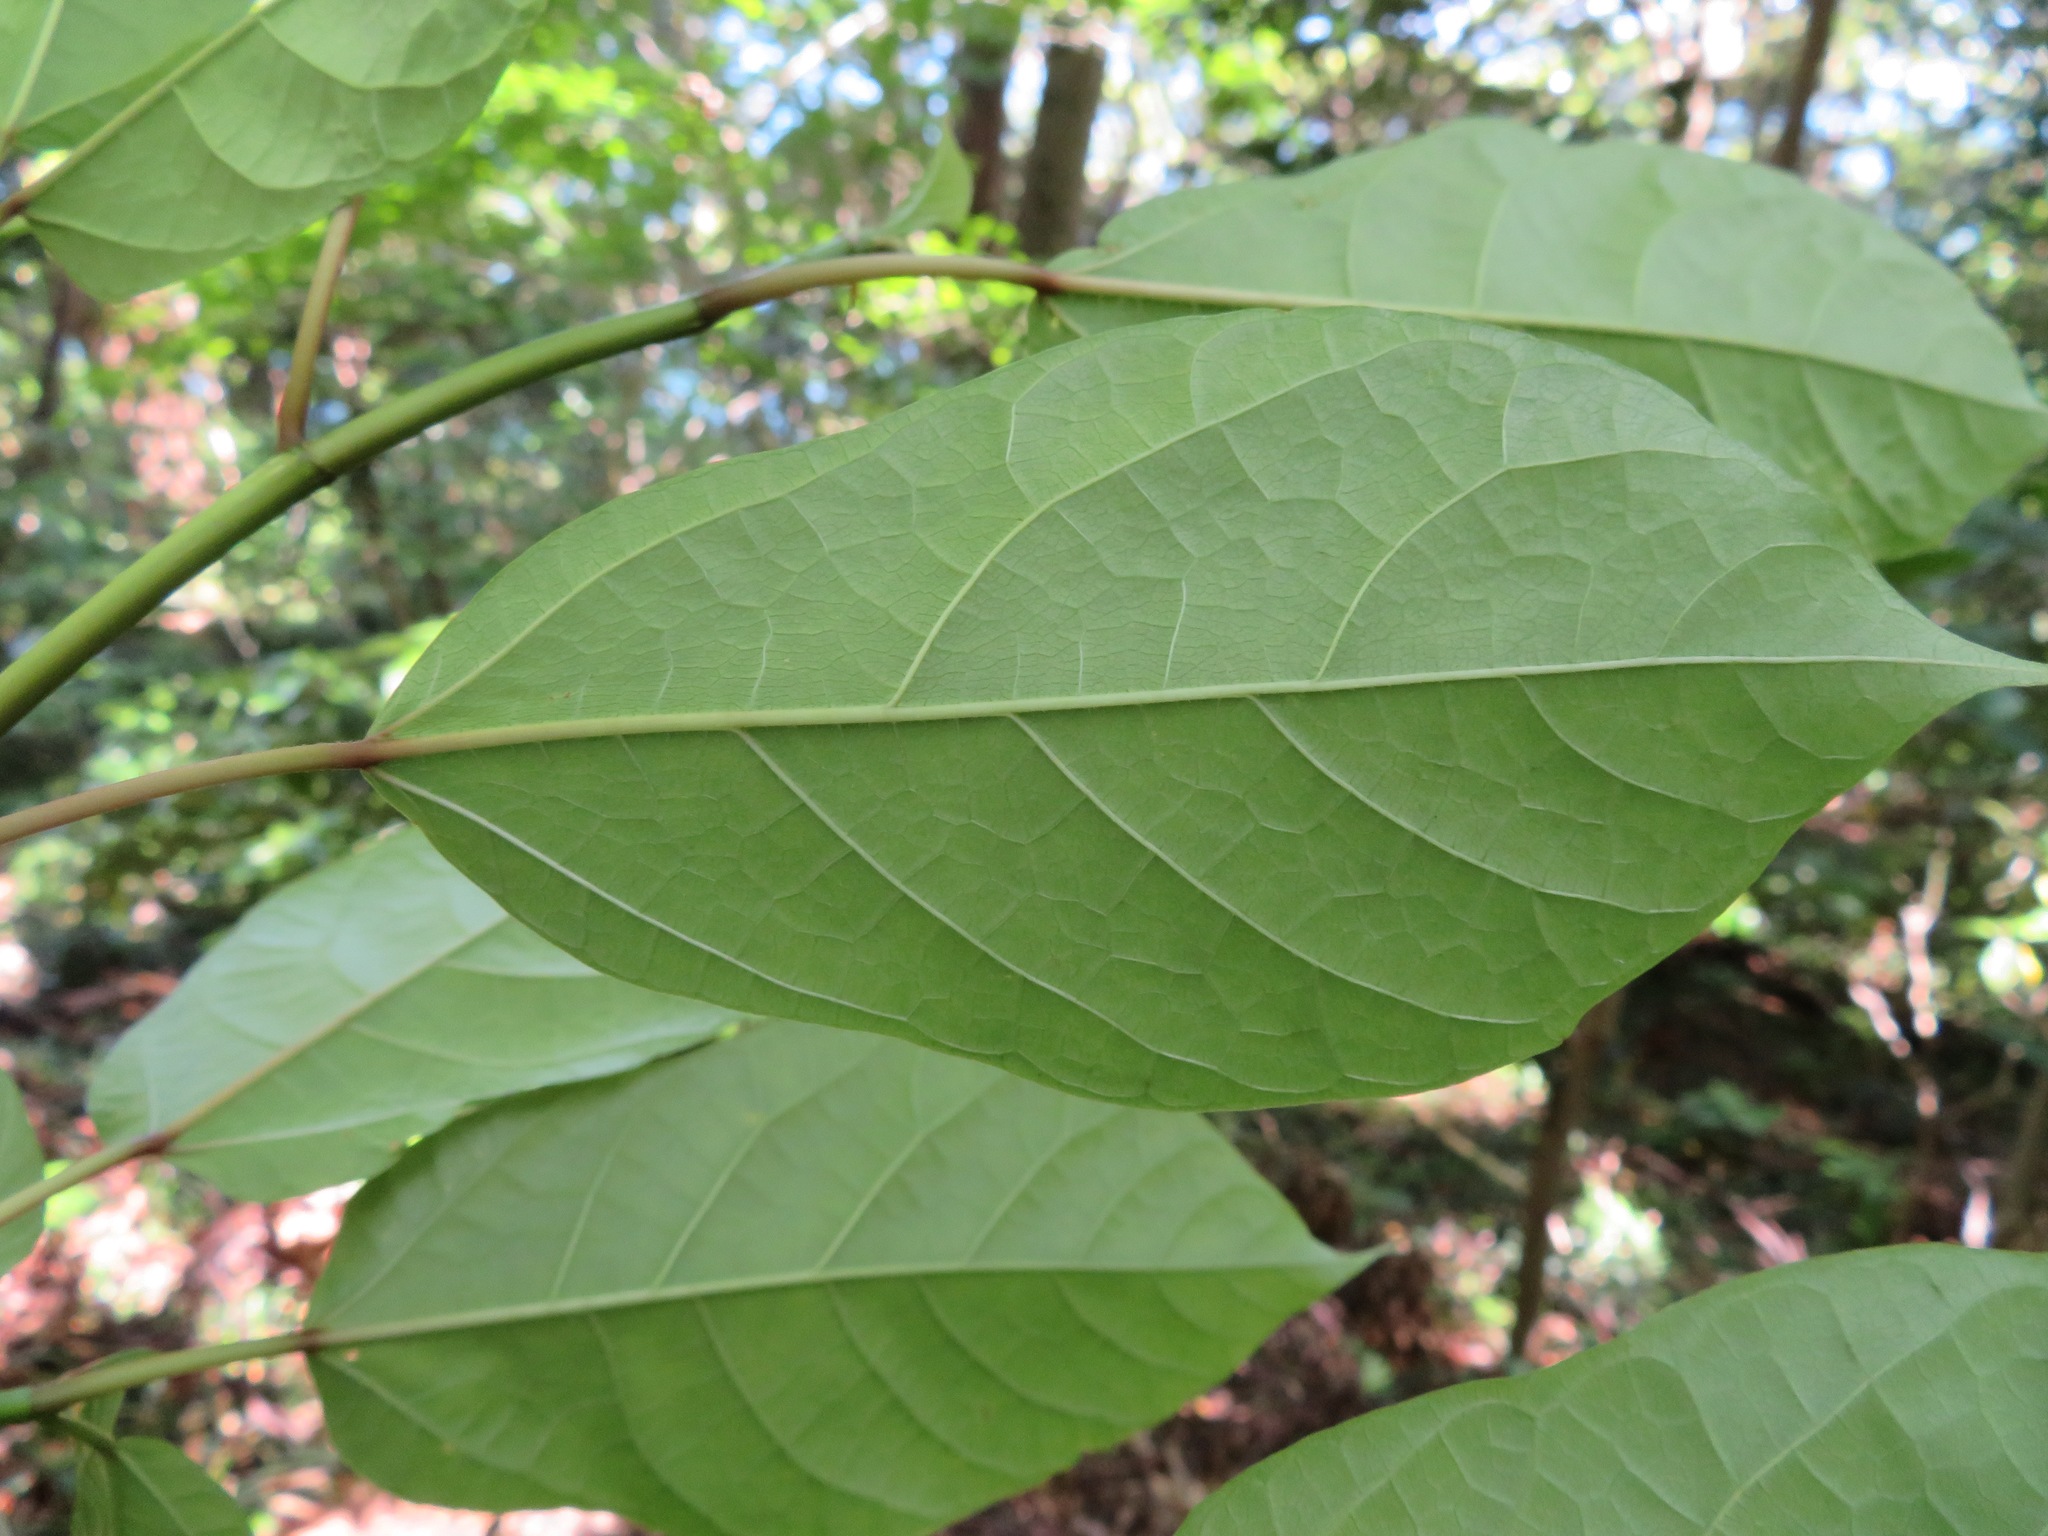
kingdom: Plantae
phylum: Tracheophyta
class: Magnoliopsida
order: Rosales
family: Moraceae
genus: Ficus
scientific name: Ficus erecta
